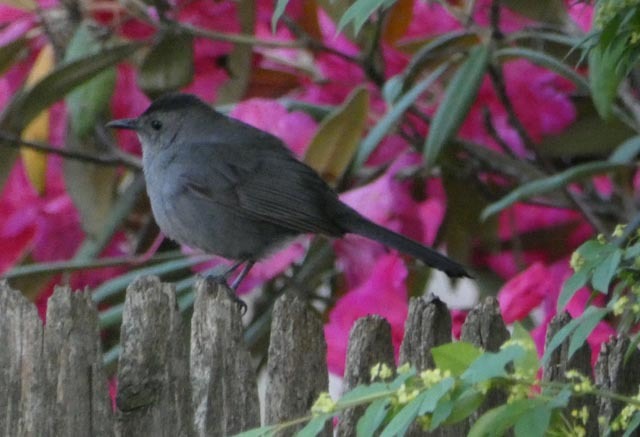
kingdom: Animalia
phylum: Chordata
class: Aves
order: Passeriformes
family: Mimidae
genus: Dumetella
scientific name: Dumetella carolinensis
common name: Gray catbird
